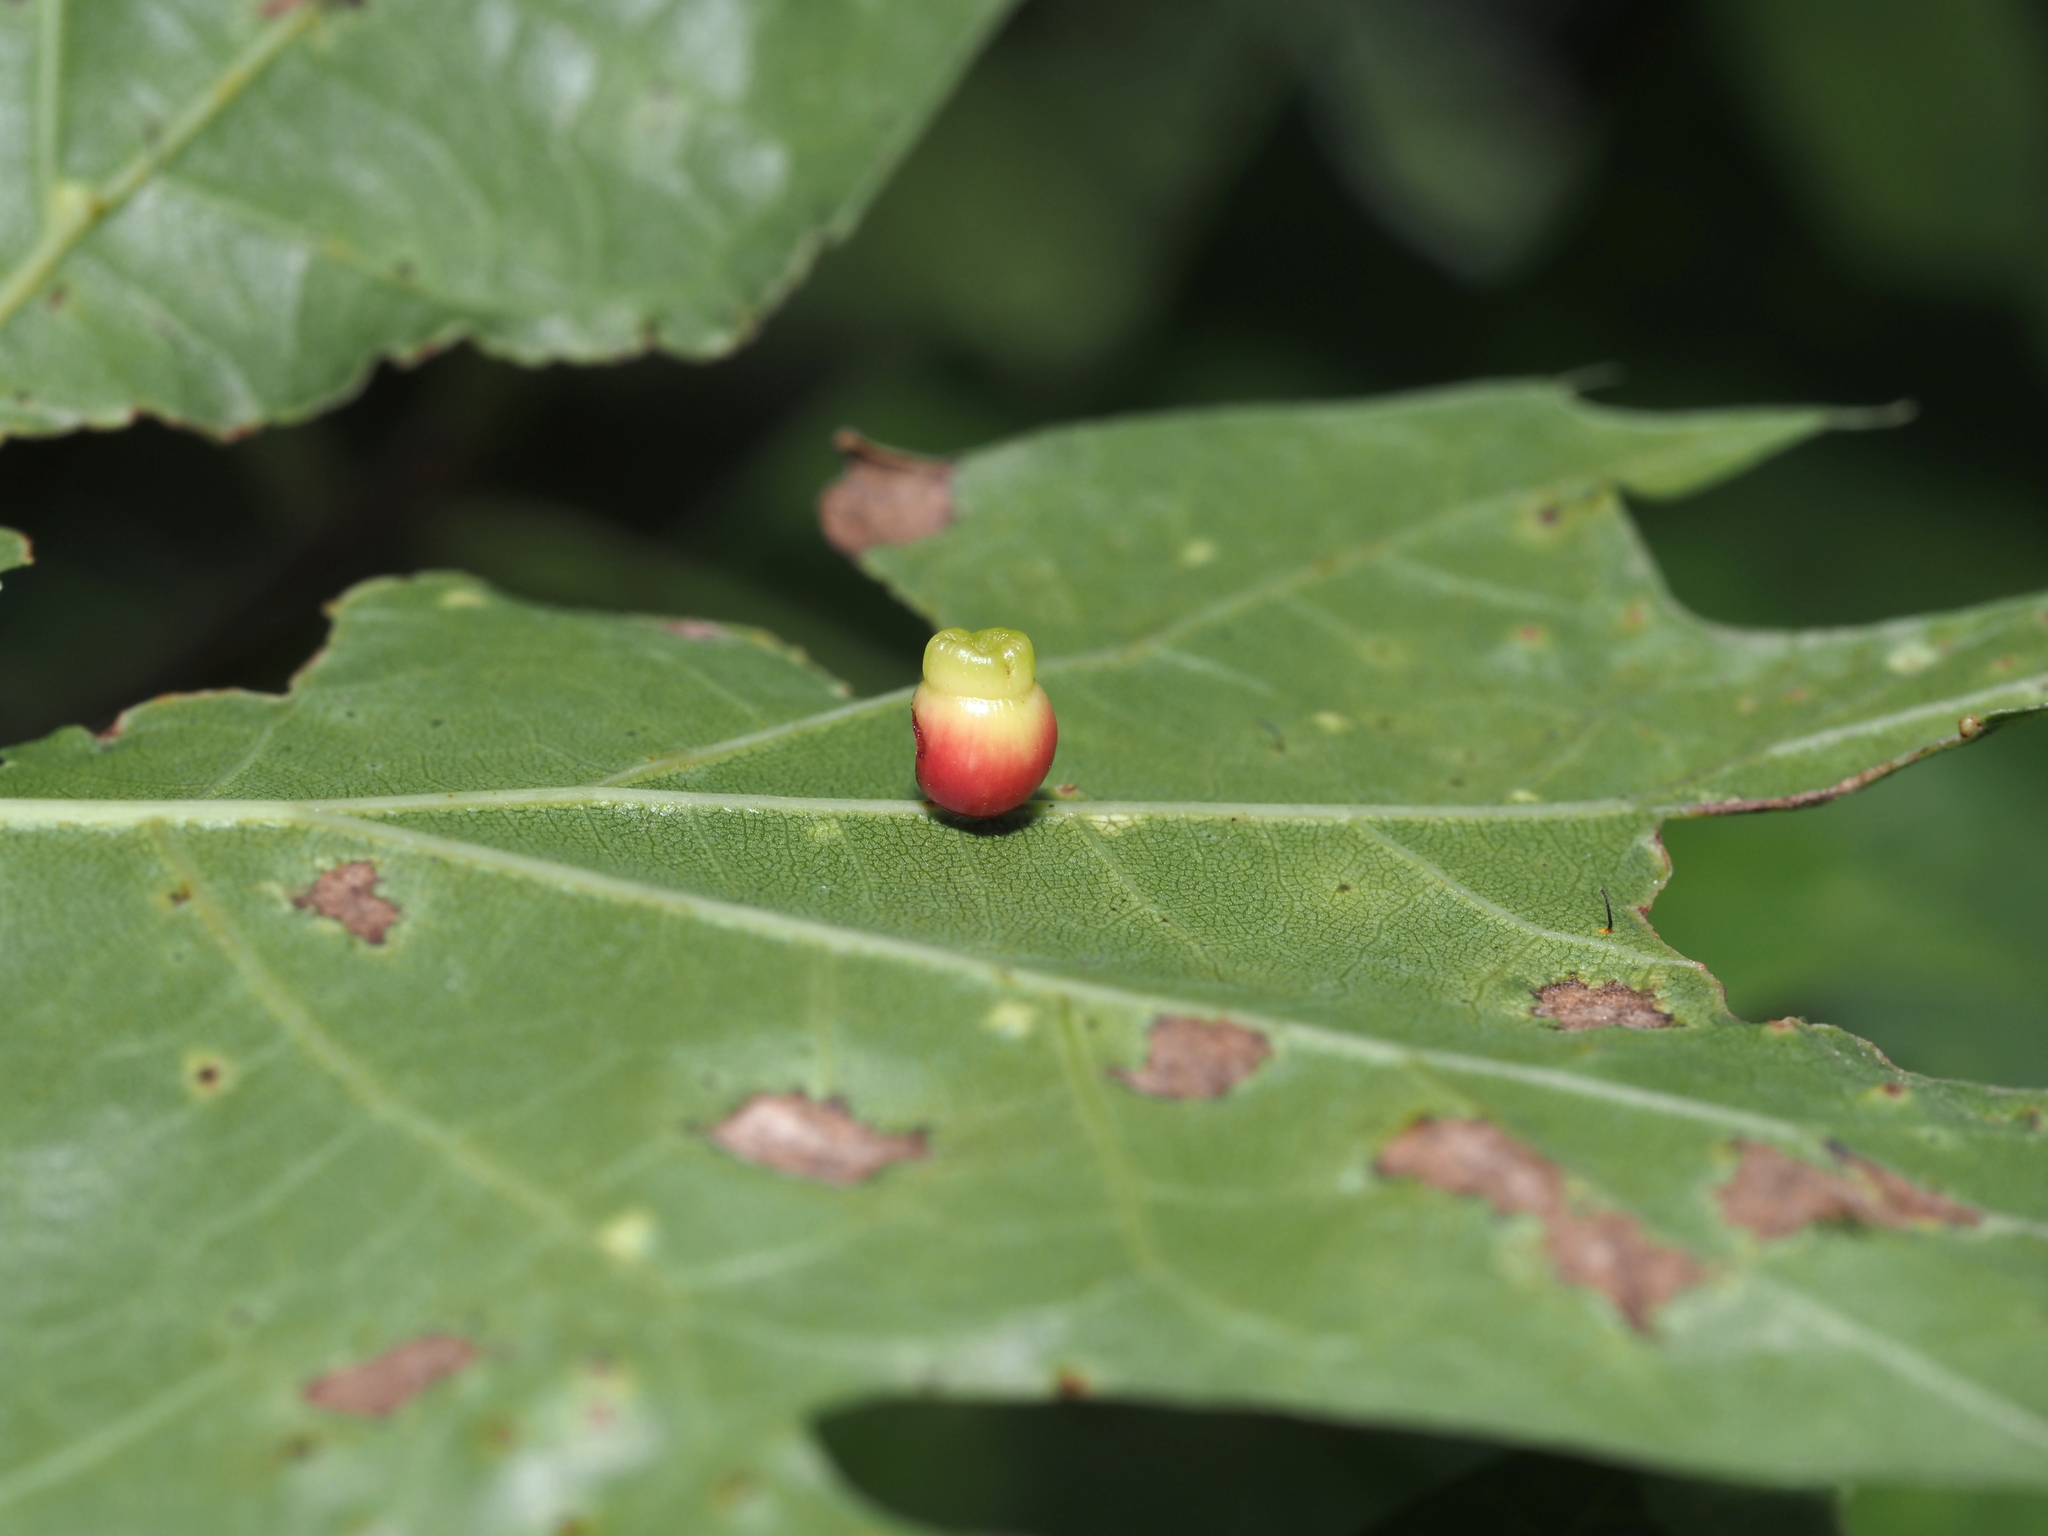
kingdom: Animalia
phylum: Arthropoda
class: Insecta
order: Hymenoptera
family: Cynipidae
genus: Kokkocynips
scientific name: Kokkocynips rileyi
